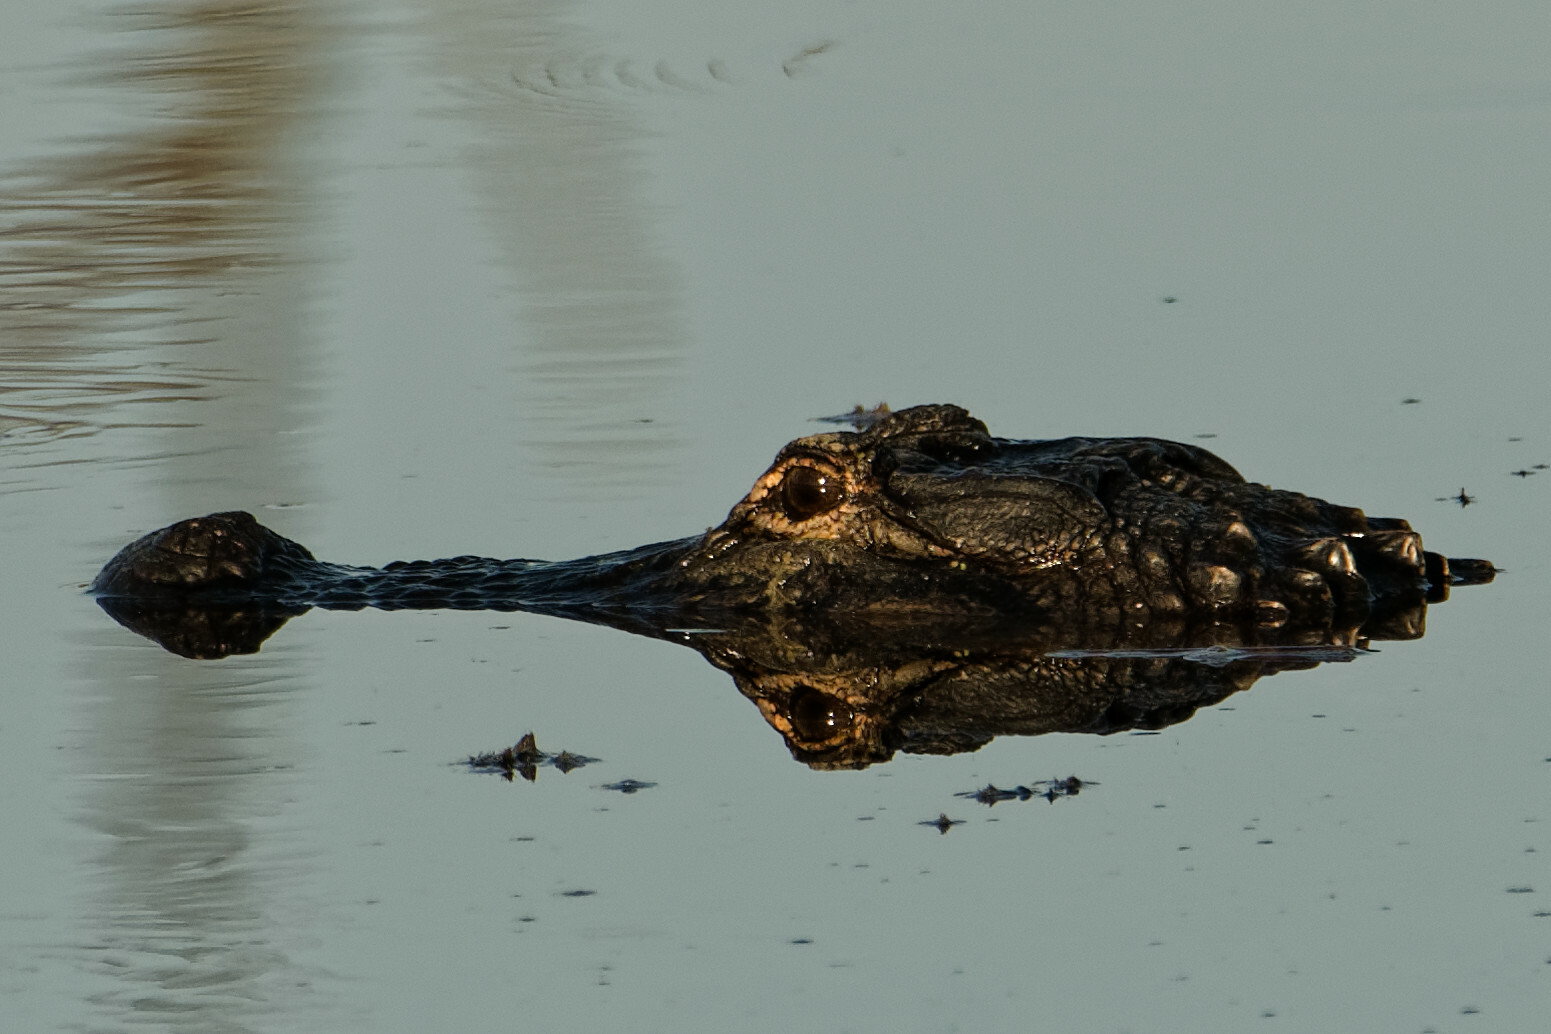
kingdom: Animalia
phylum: Chordata
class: Crocodylia
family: Alligatoridae
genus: Alligator
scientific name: Alligator mississippiensis
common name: American alligator
